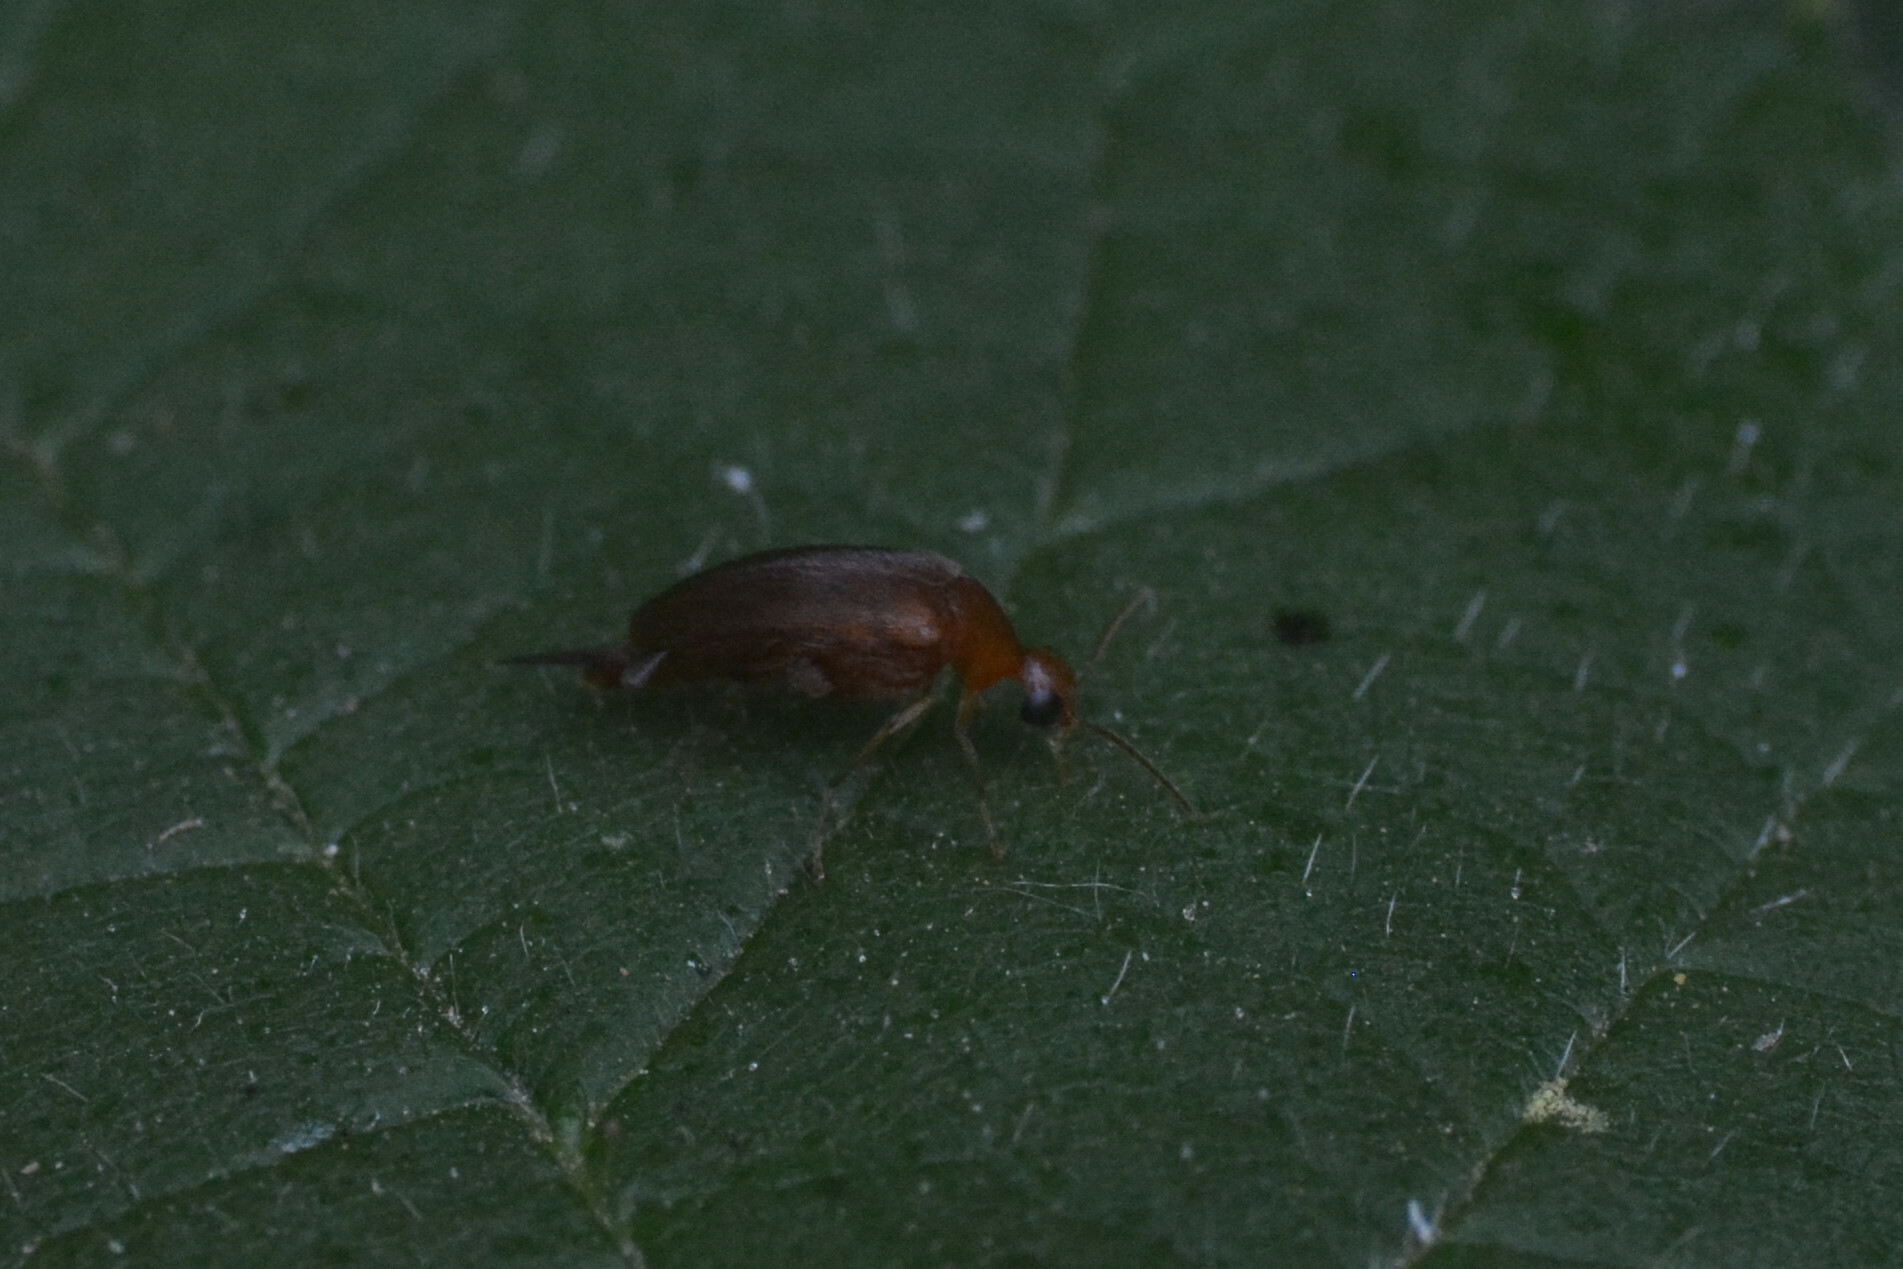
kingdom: Animalia
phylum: Arthropoda
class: Insecta
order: Coleoptera
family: Mordellidae
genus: Mordellistena
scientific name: Mordellistena neuwaldeggiana
